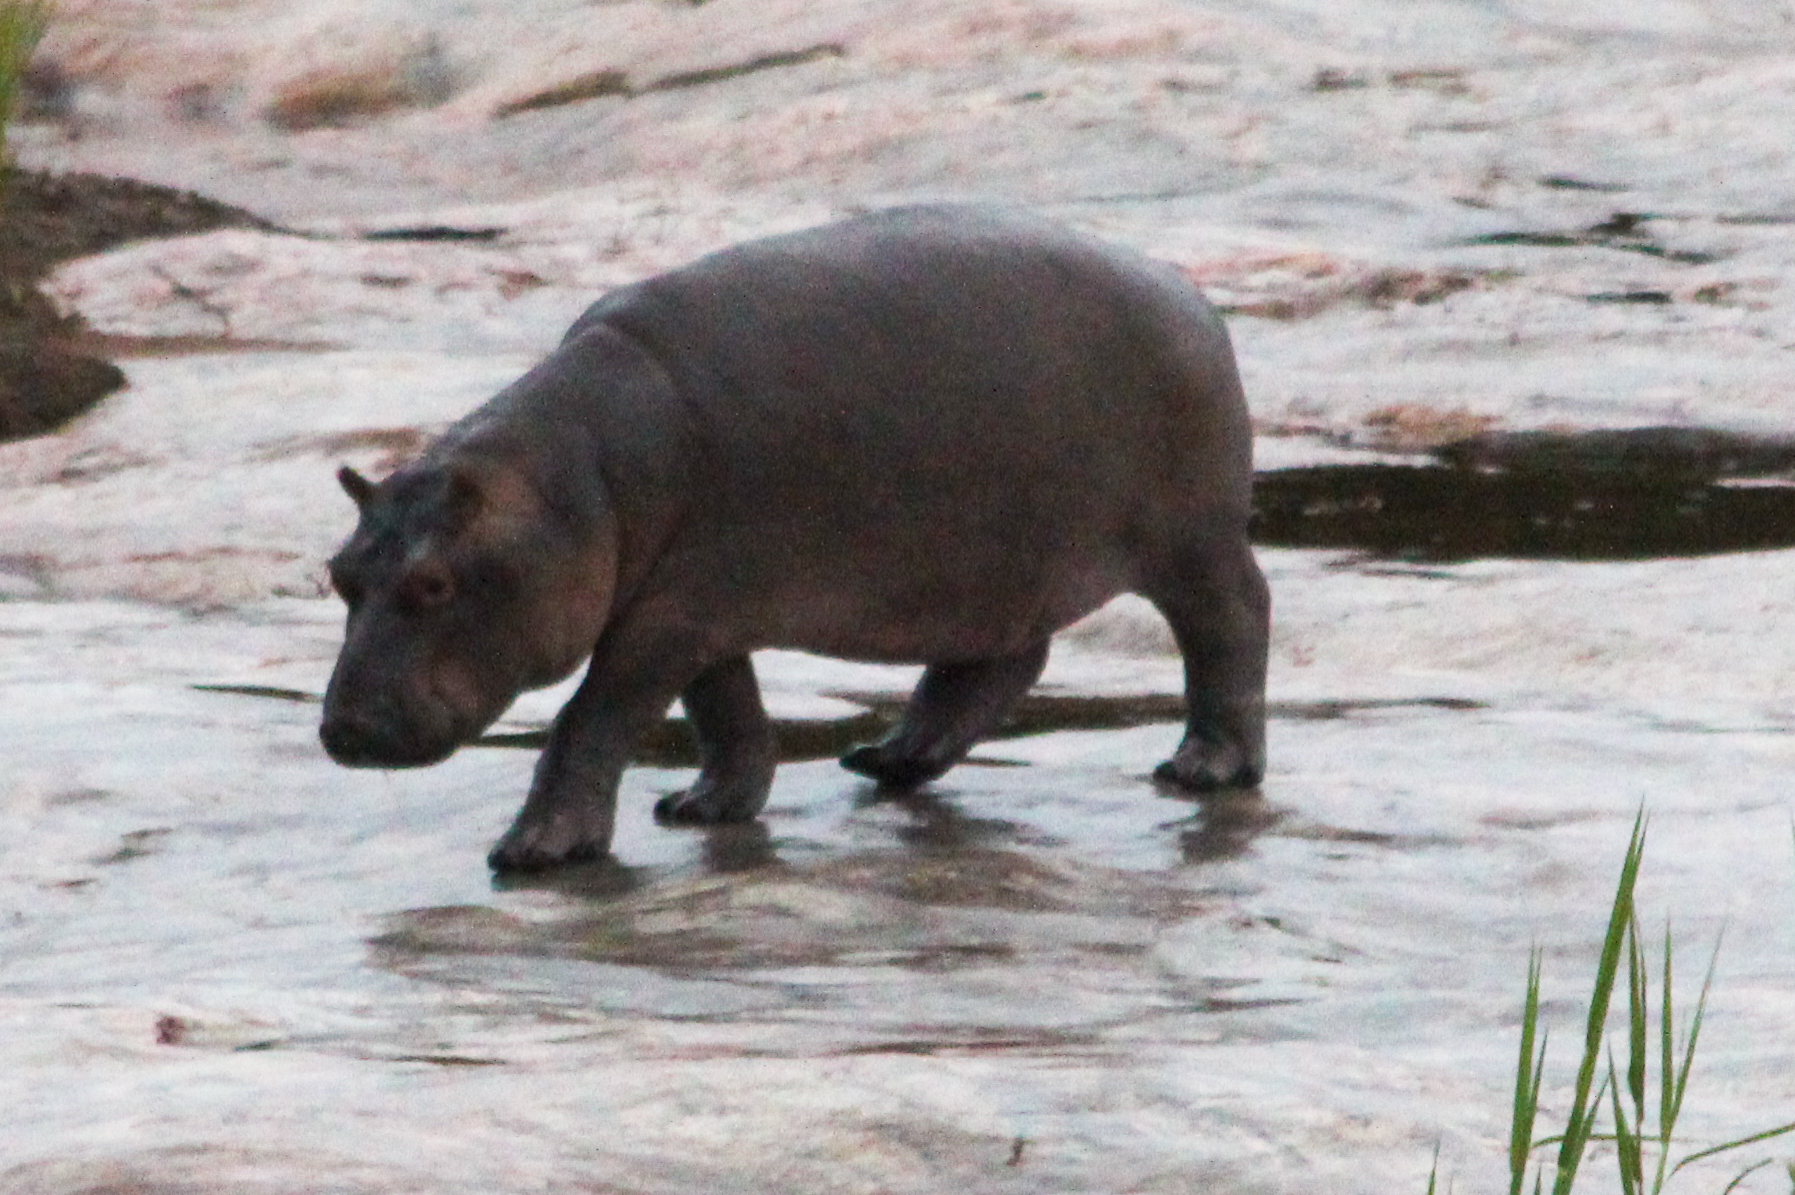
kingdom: Animalia
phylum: Chordata
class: Mammalia
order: Artiodactyla
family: Hippopotamidae
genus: Hippopotamus
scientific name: Hippopotamus amphibius
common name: Common hippopotamus
